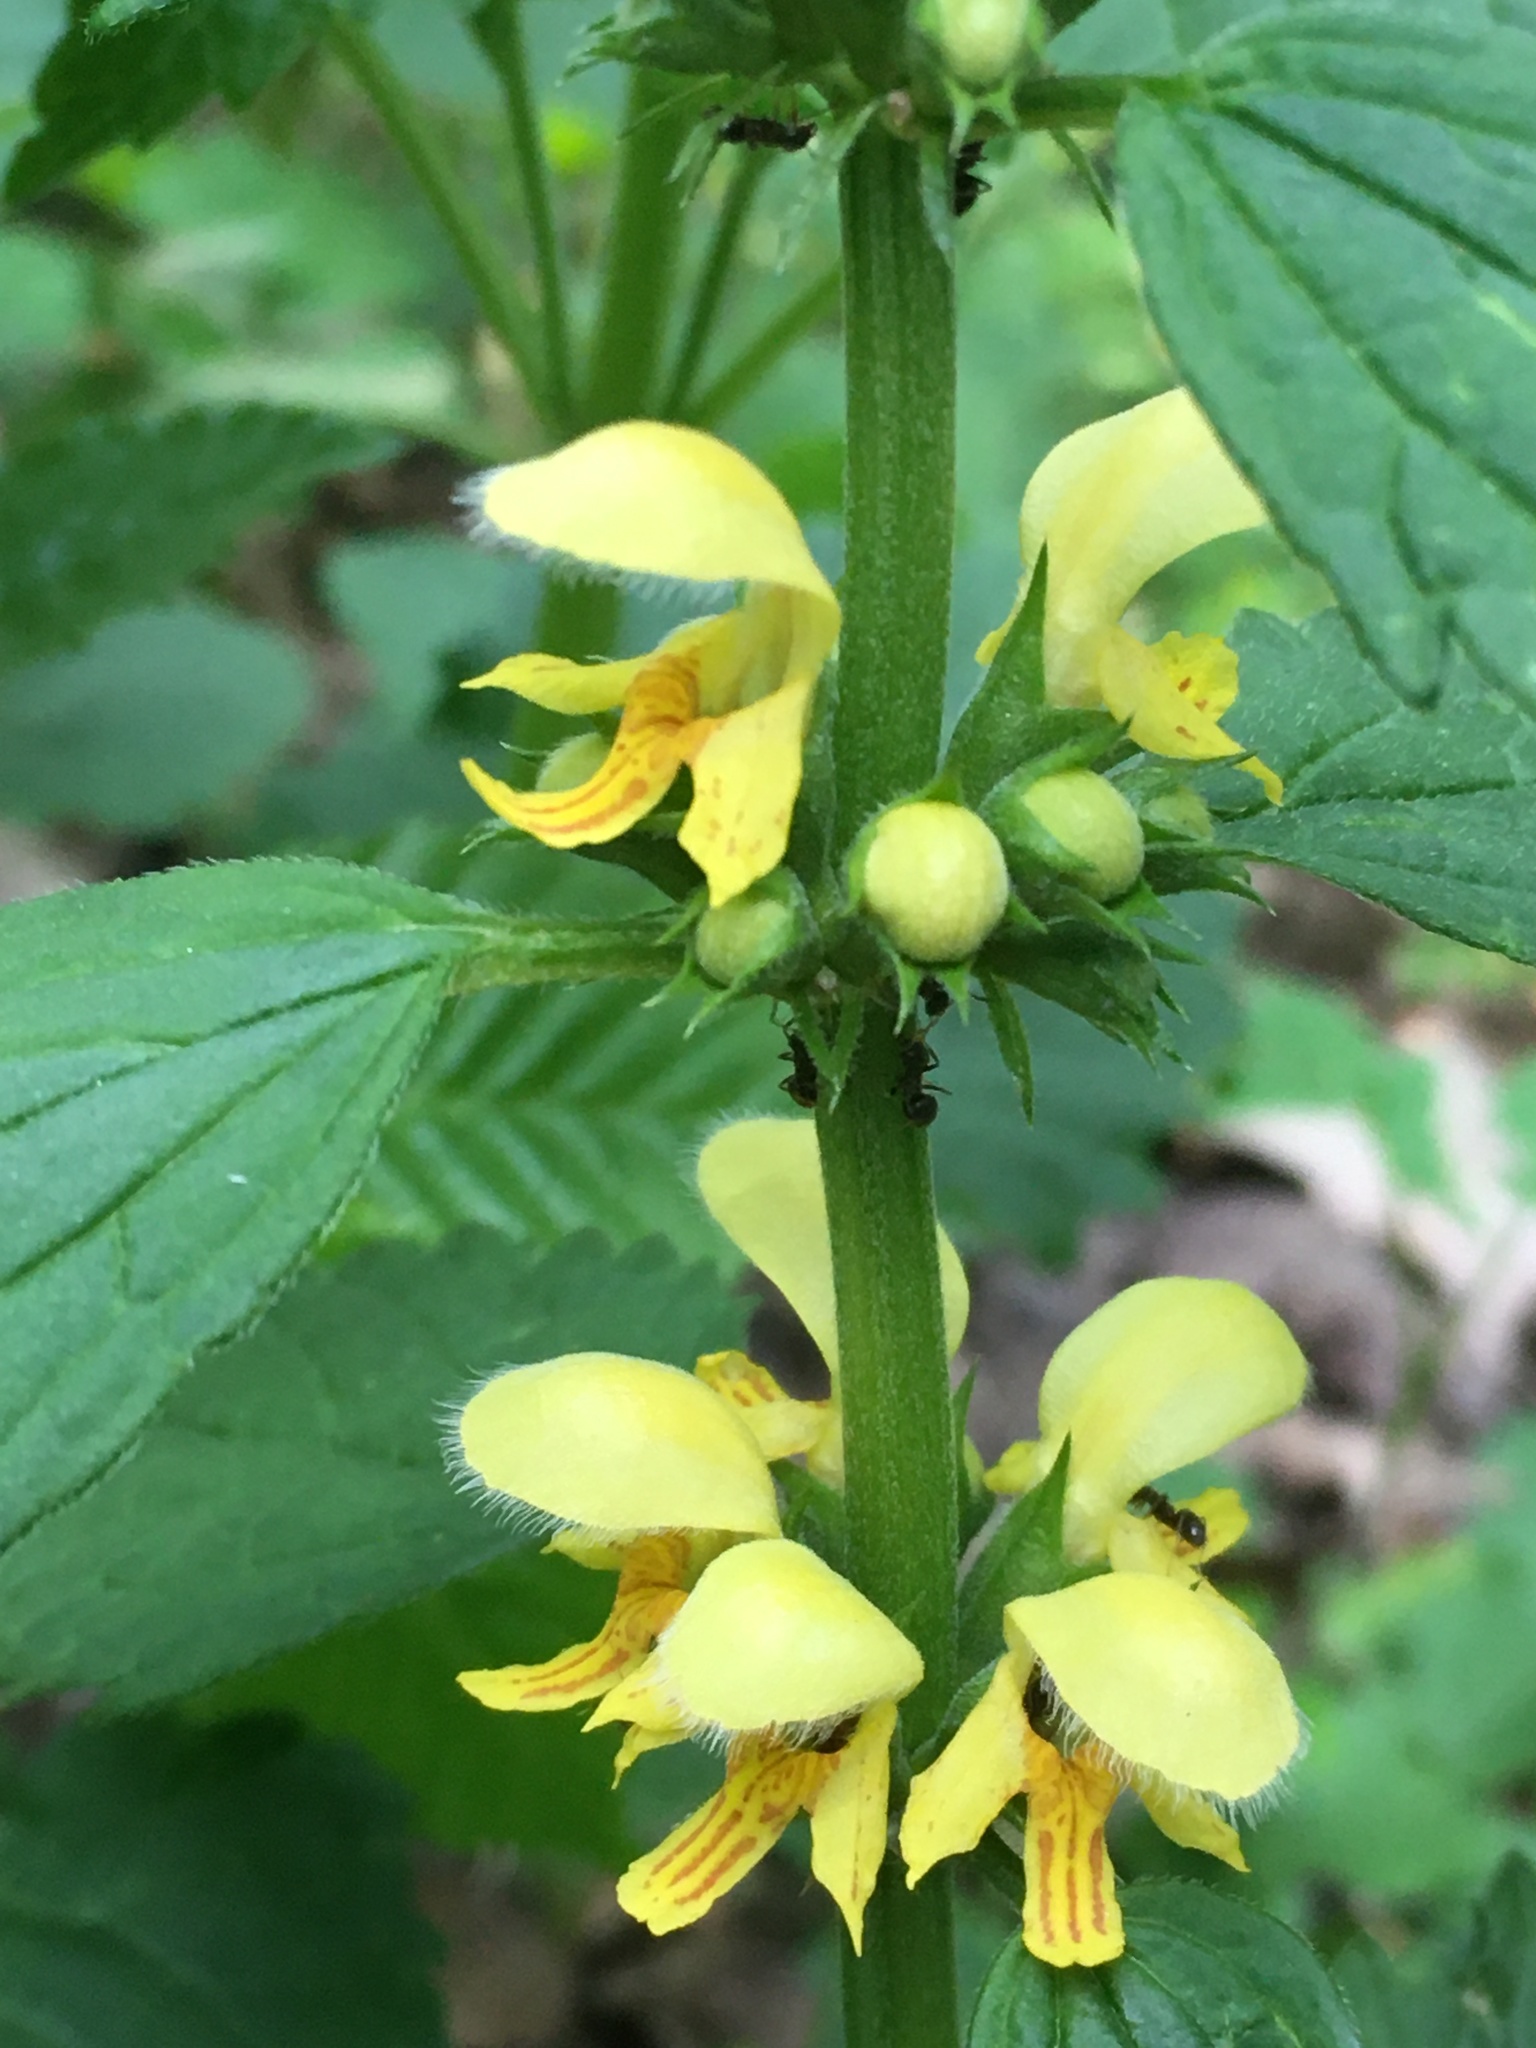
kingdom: Plantae
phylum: Tracheophyta
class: Magnoliopsida
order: Lamiales
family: Lamiaceae
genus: Lamium
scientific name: Lamium galeobdolon
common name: Yellow archangel
